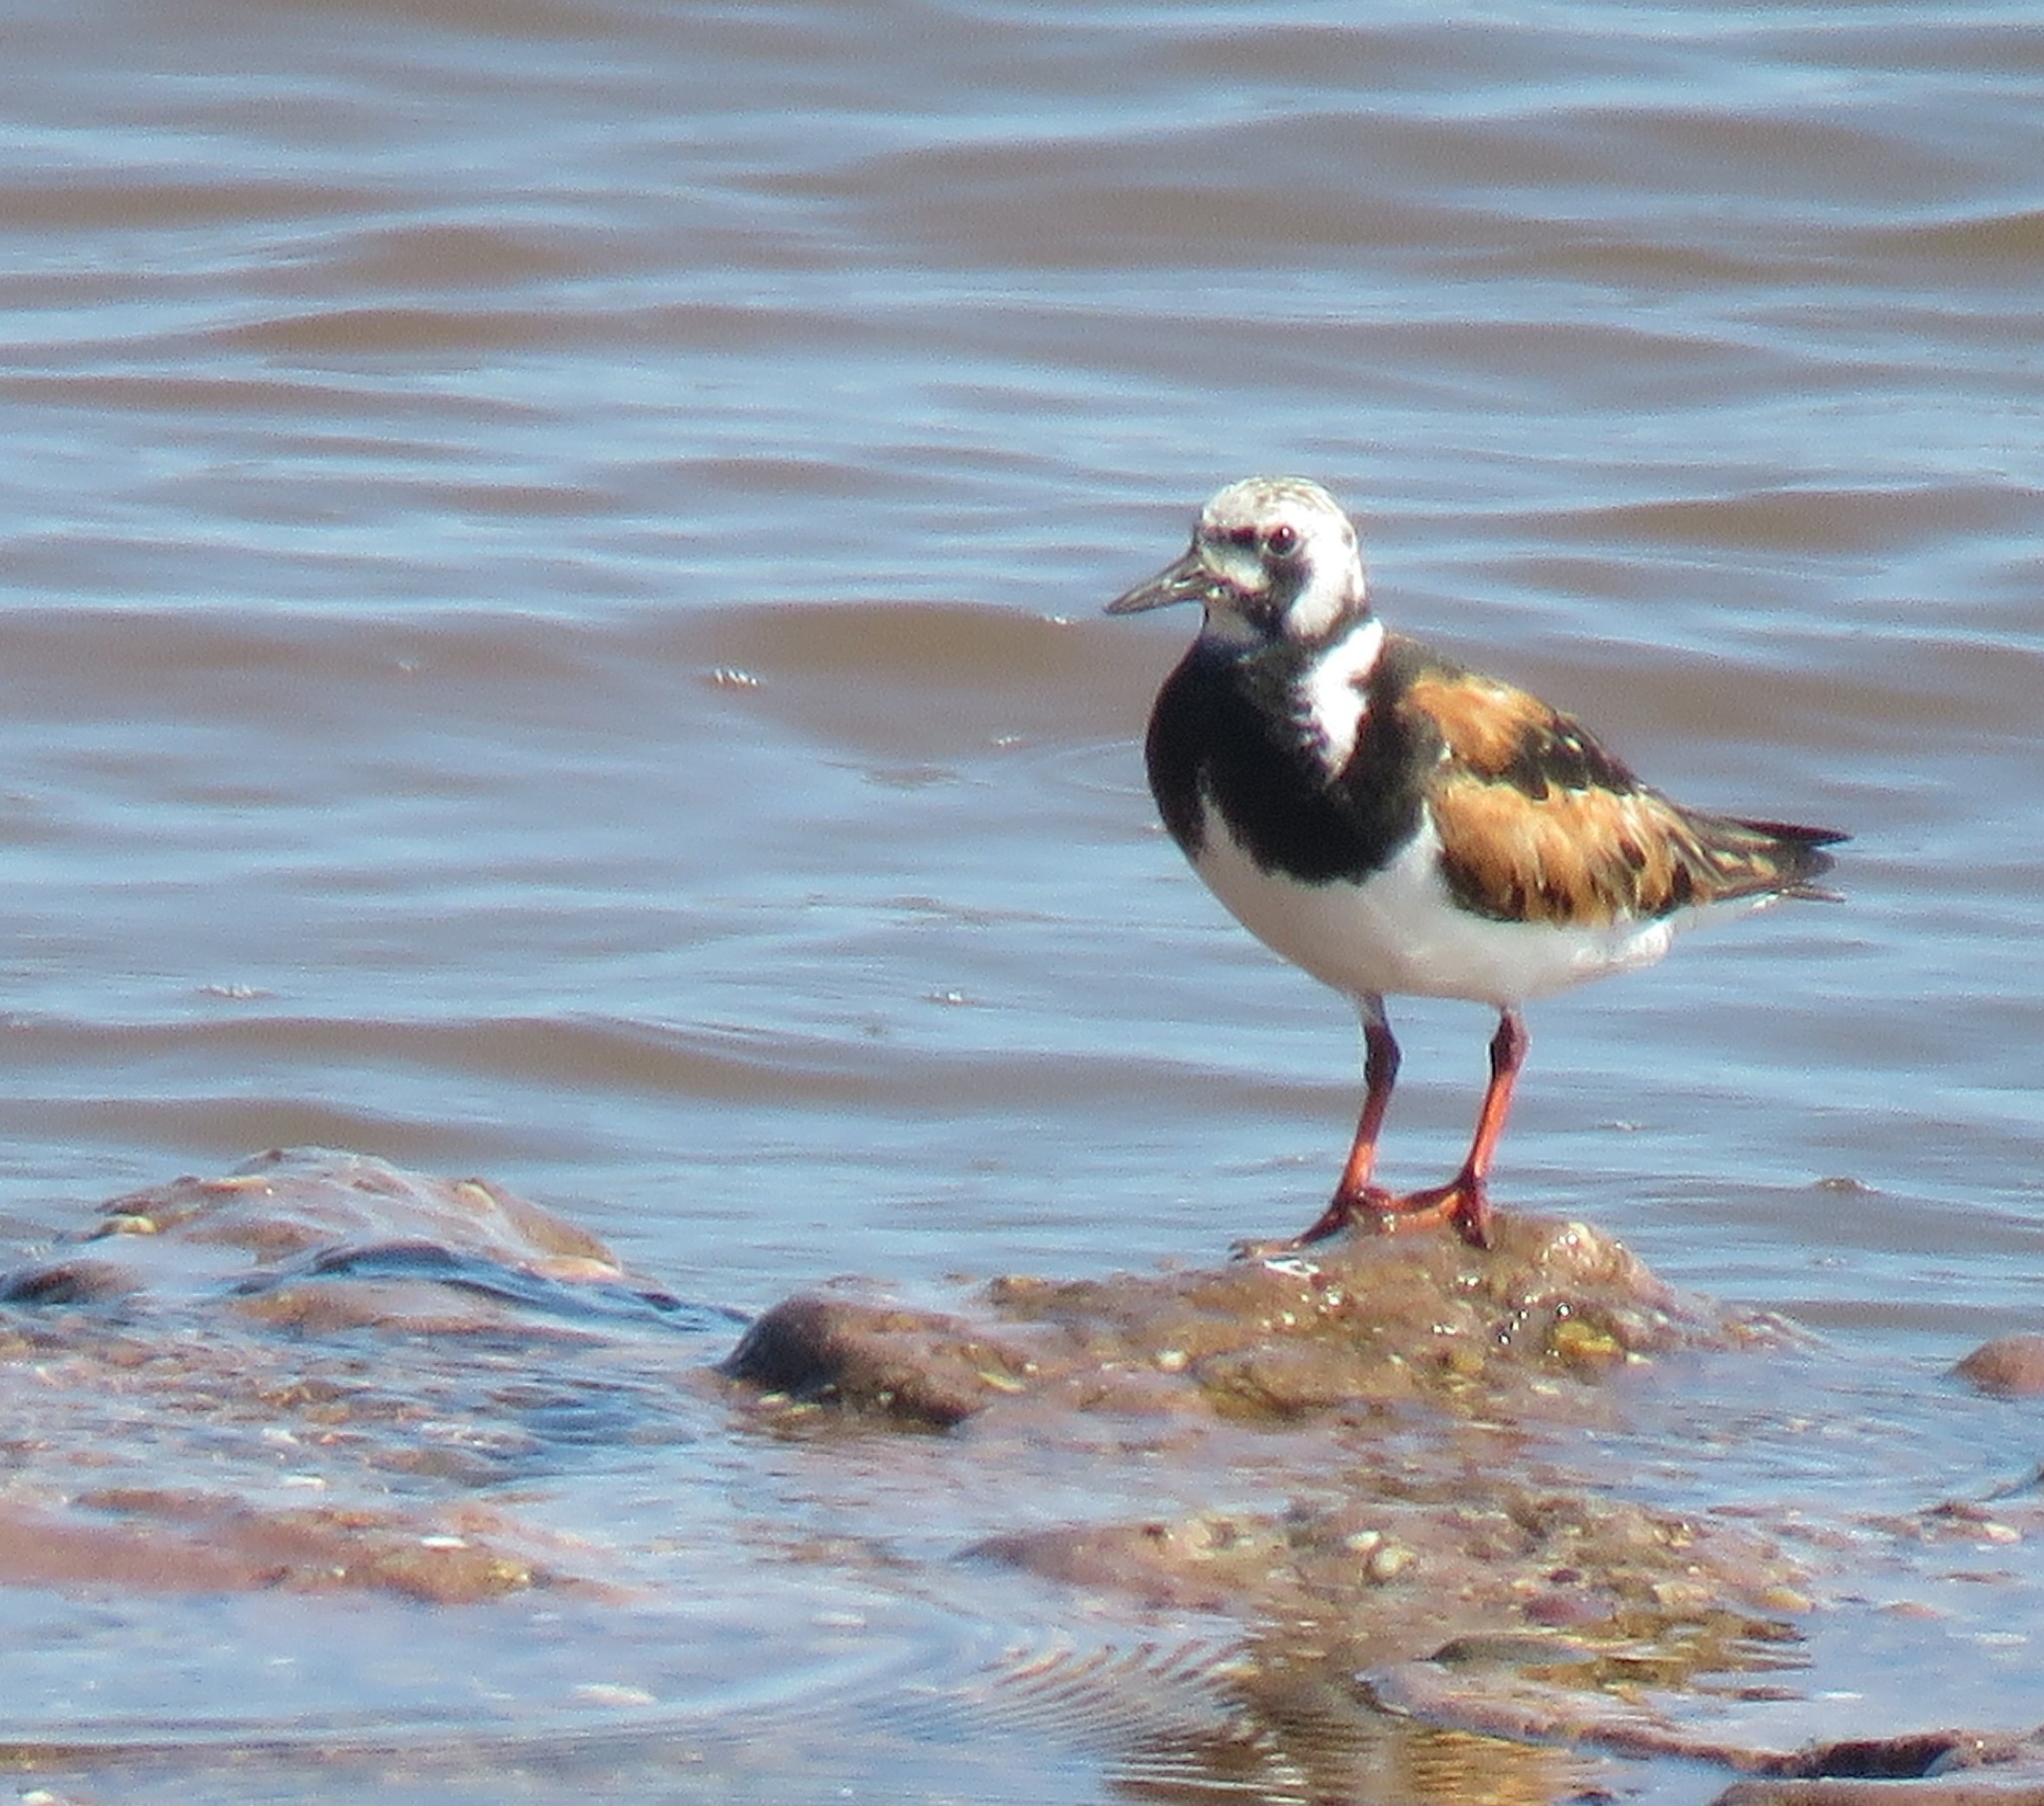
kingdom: Animalia
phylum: Chordata
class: Aves
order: Charadriiformes
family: Scolopacidae
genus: Arenaria
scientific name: Arenaria interpres
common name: Ruddy turnstone
